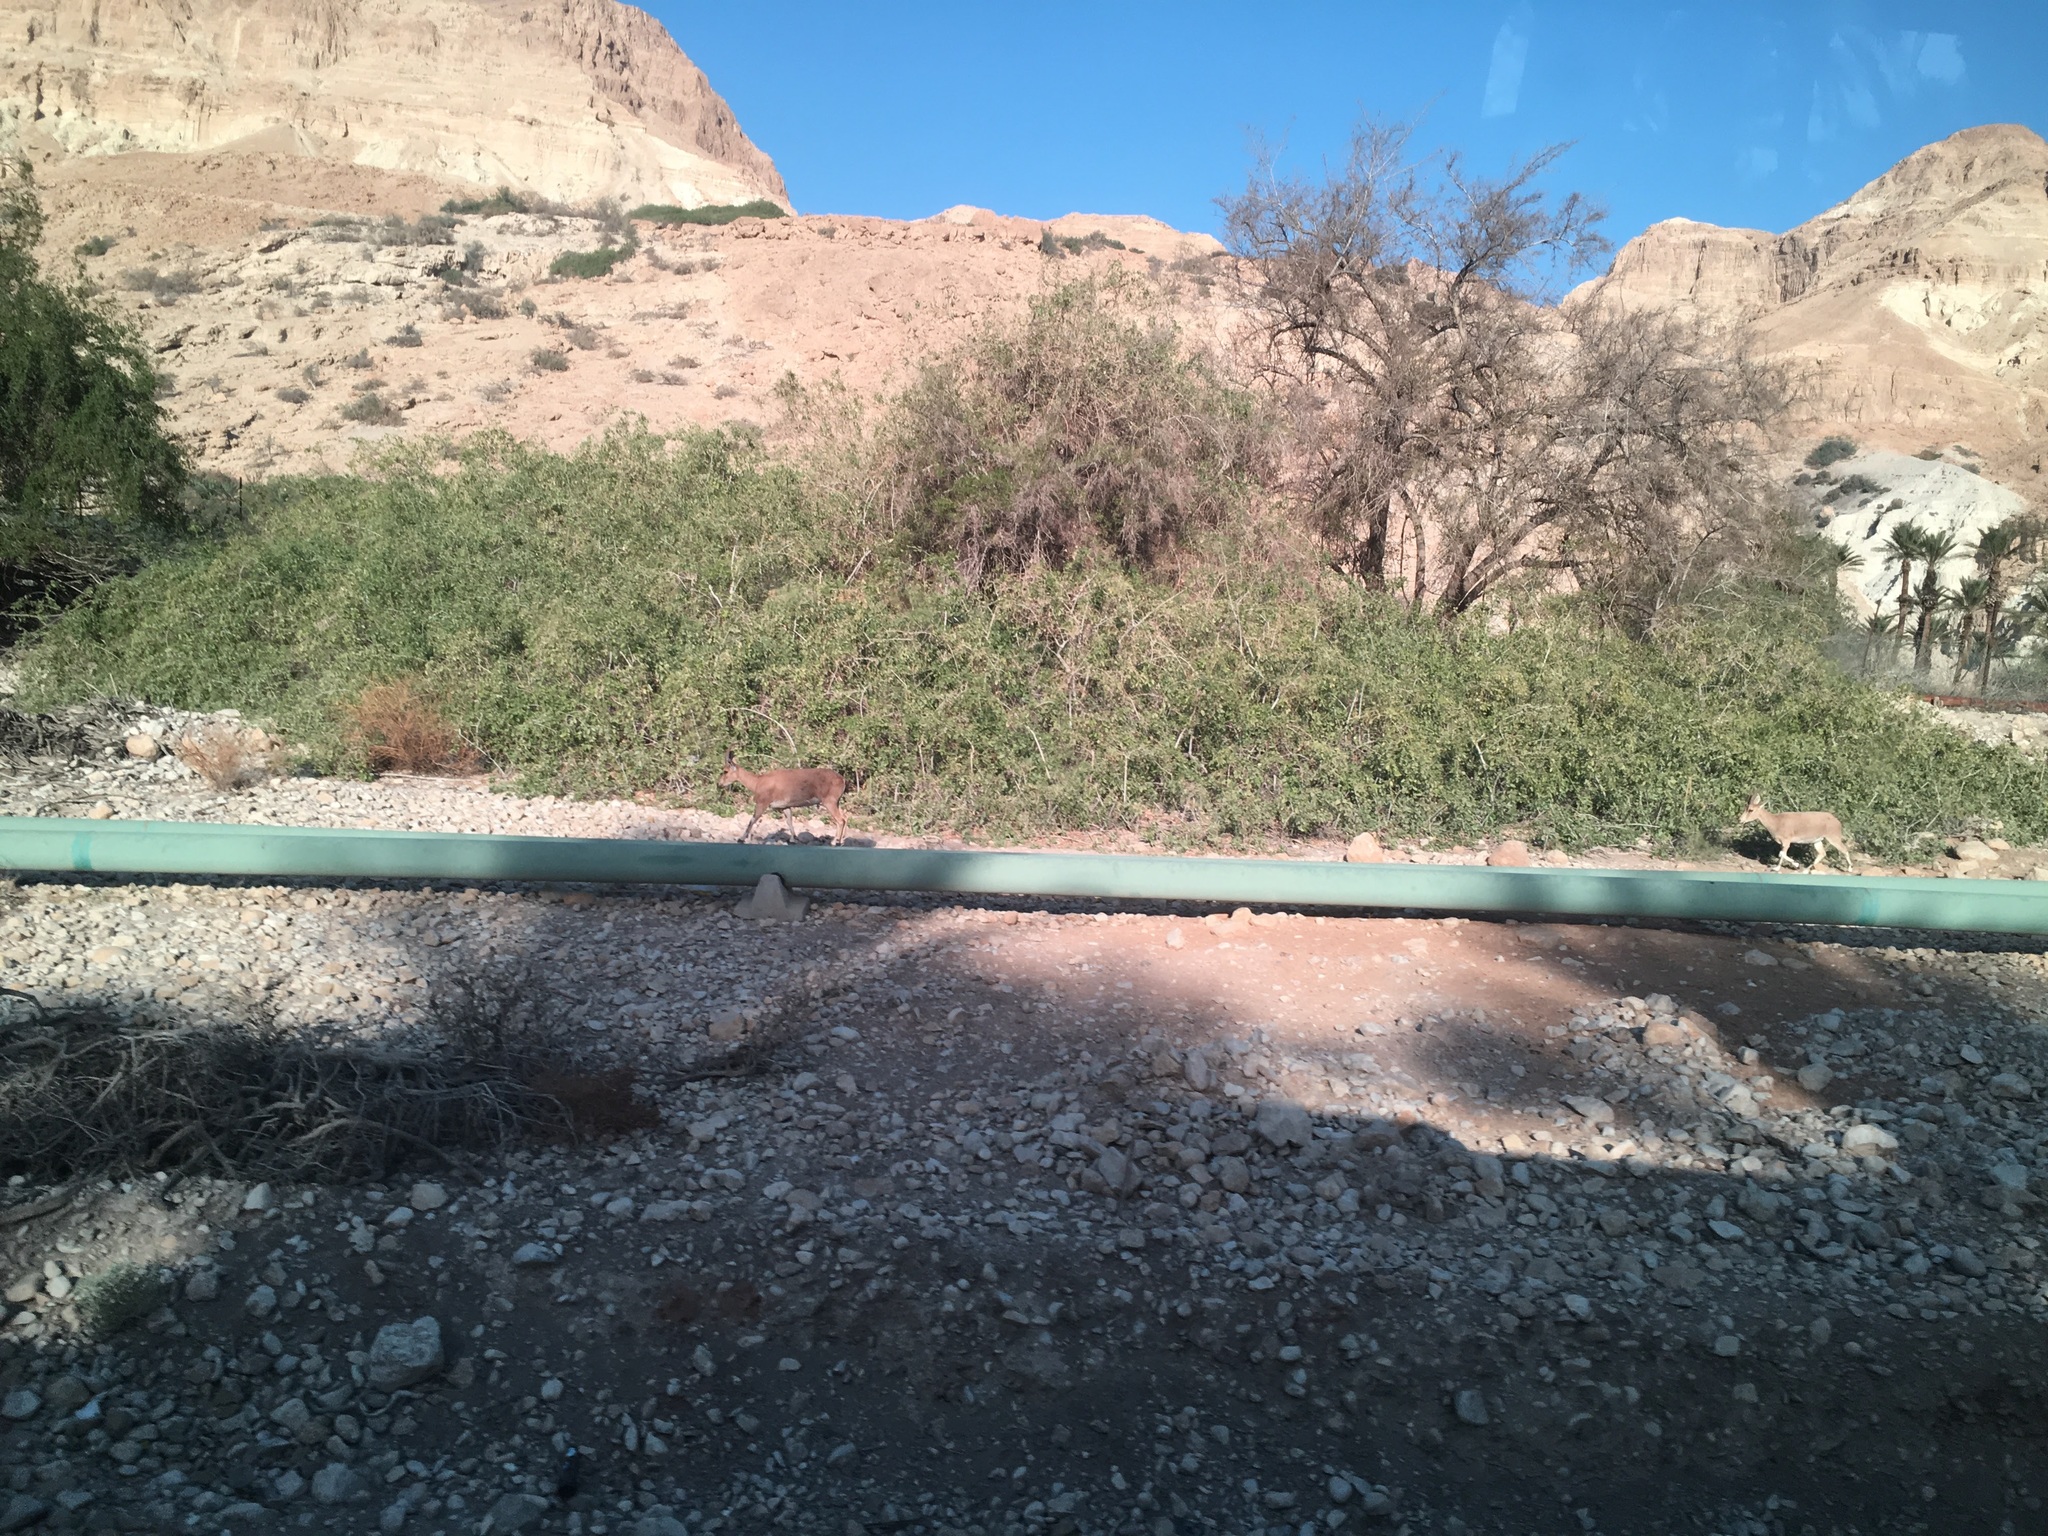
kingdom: Animalia
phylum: Chordata
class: Mammalia
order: Artiodactyla
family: Bovidae
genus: Capra
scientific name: Capra nubiana
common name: Nubian ibex
